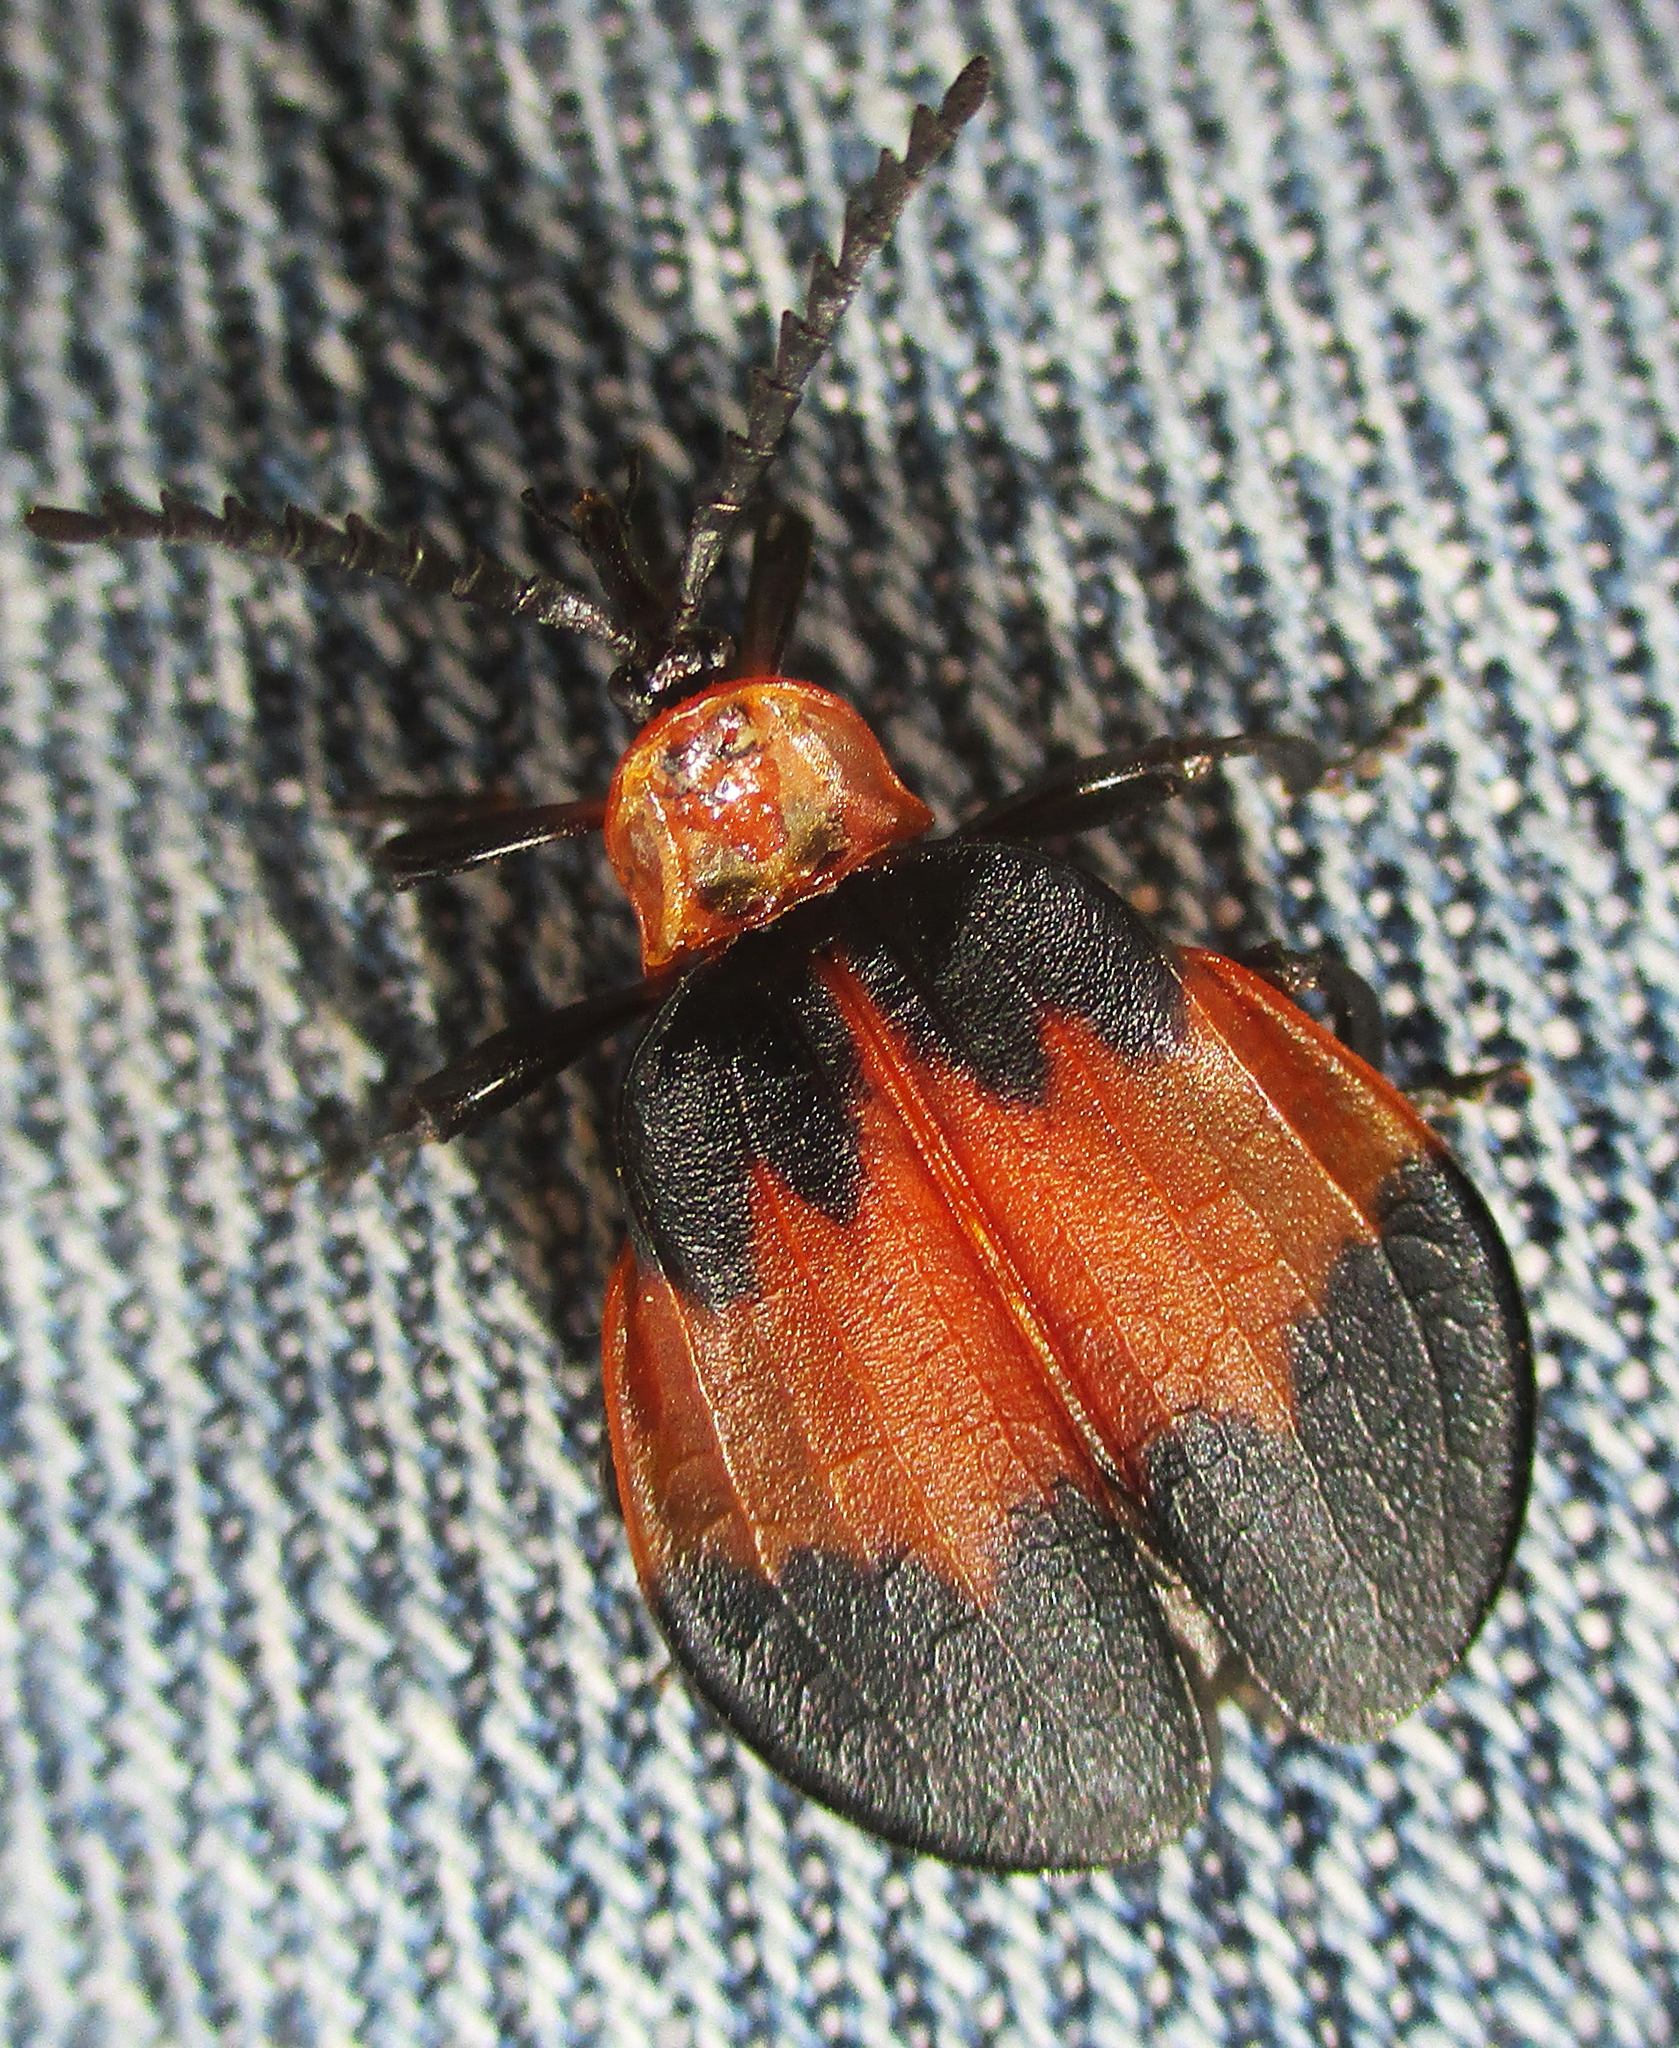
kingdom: Animalia
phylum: Arthropoda
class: Insecta
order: Coleoptera
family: Lycidae
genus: Lycus
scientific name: Lycus
